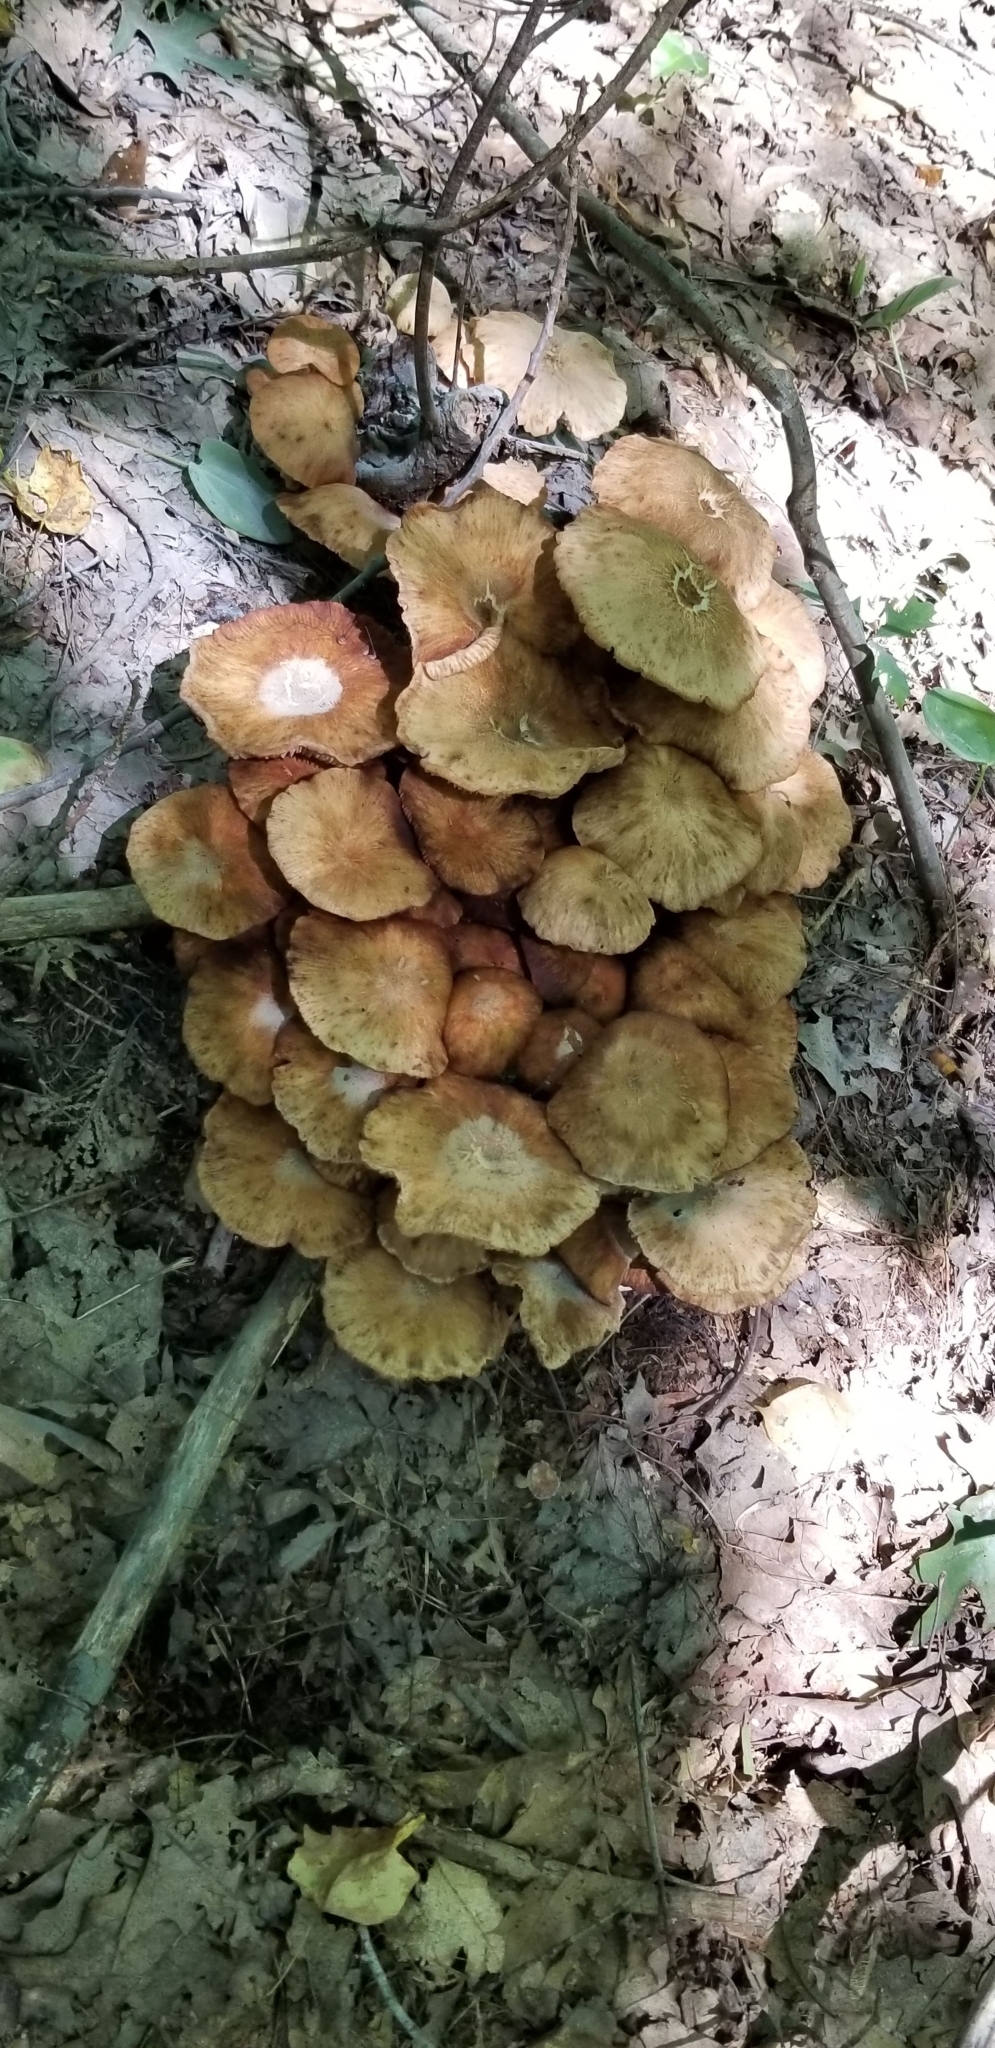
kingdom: Fungi
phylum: Basidiomycota
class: Agaricomycetes
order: Agaricales
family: Physalacriaceae
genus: Desarmillaria
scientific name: Desarmillaria caespitosa
